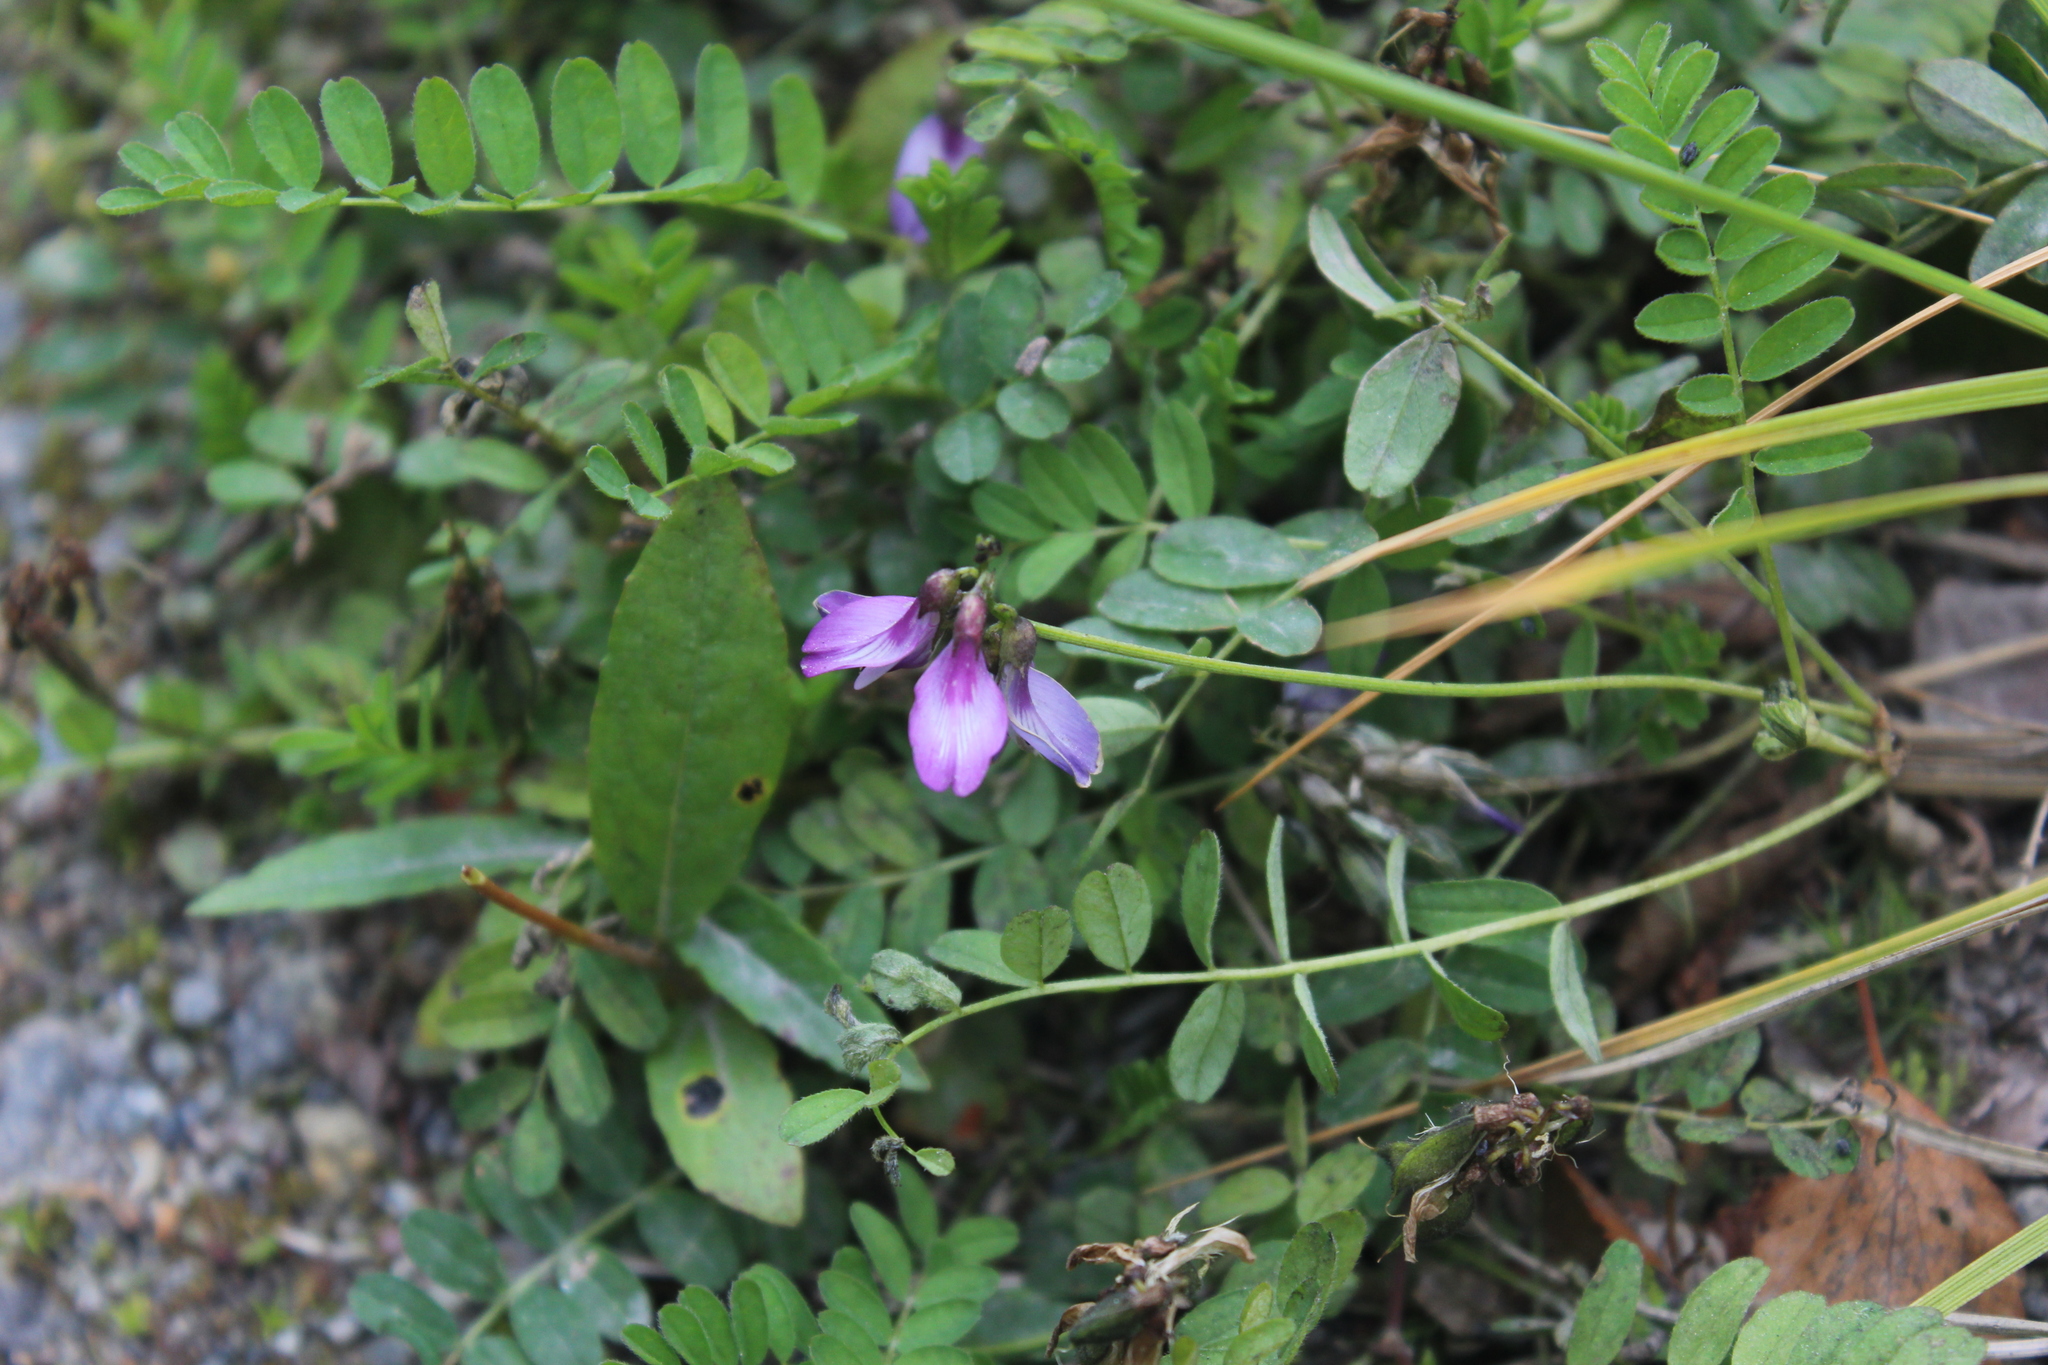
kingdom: Plantae
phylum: Tracheophyta
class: Magnoliopsida
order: Fabales
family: Fabaceae
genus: Astragalus
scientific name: Astragalus alpinus
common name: Alpine milk-vetch
